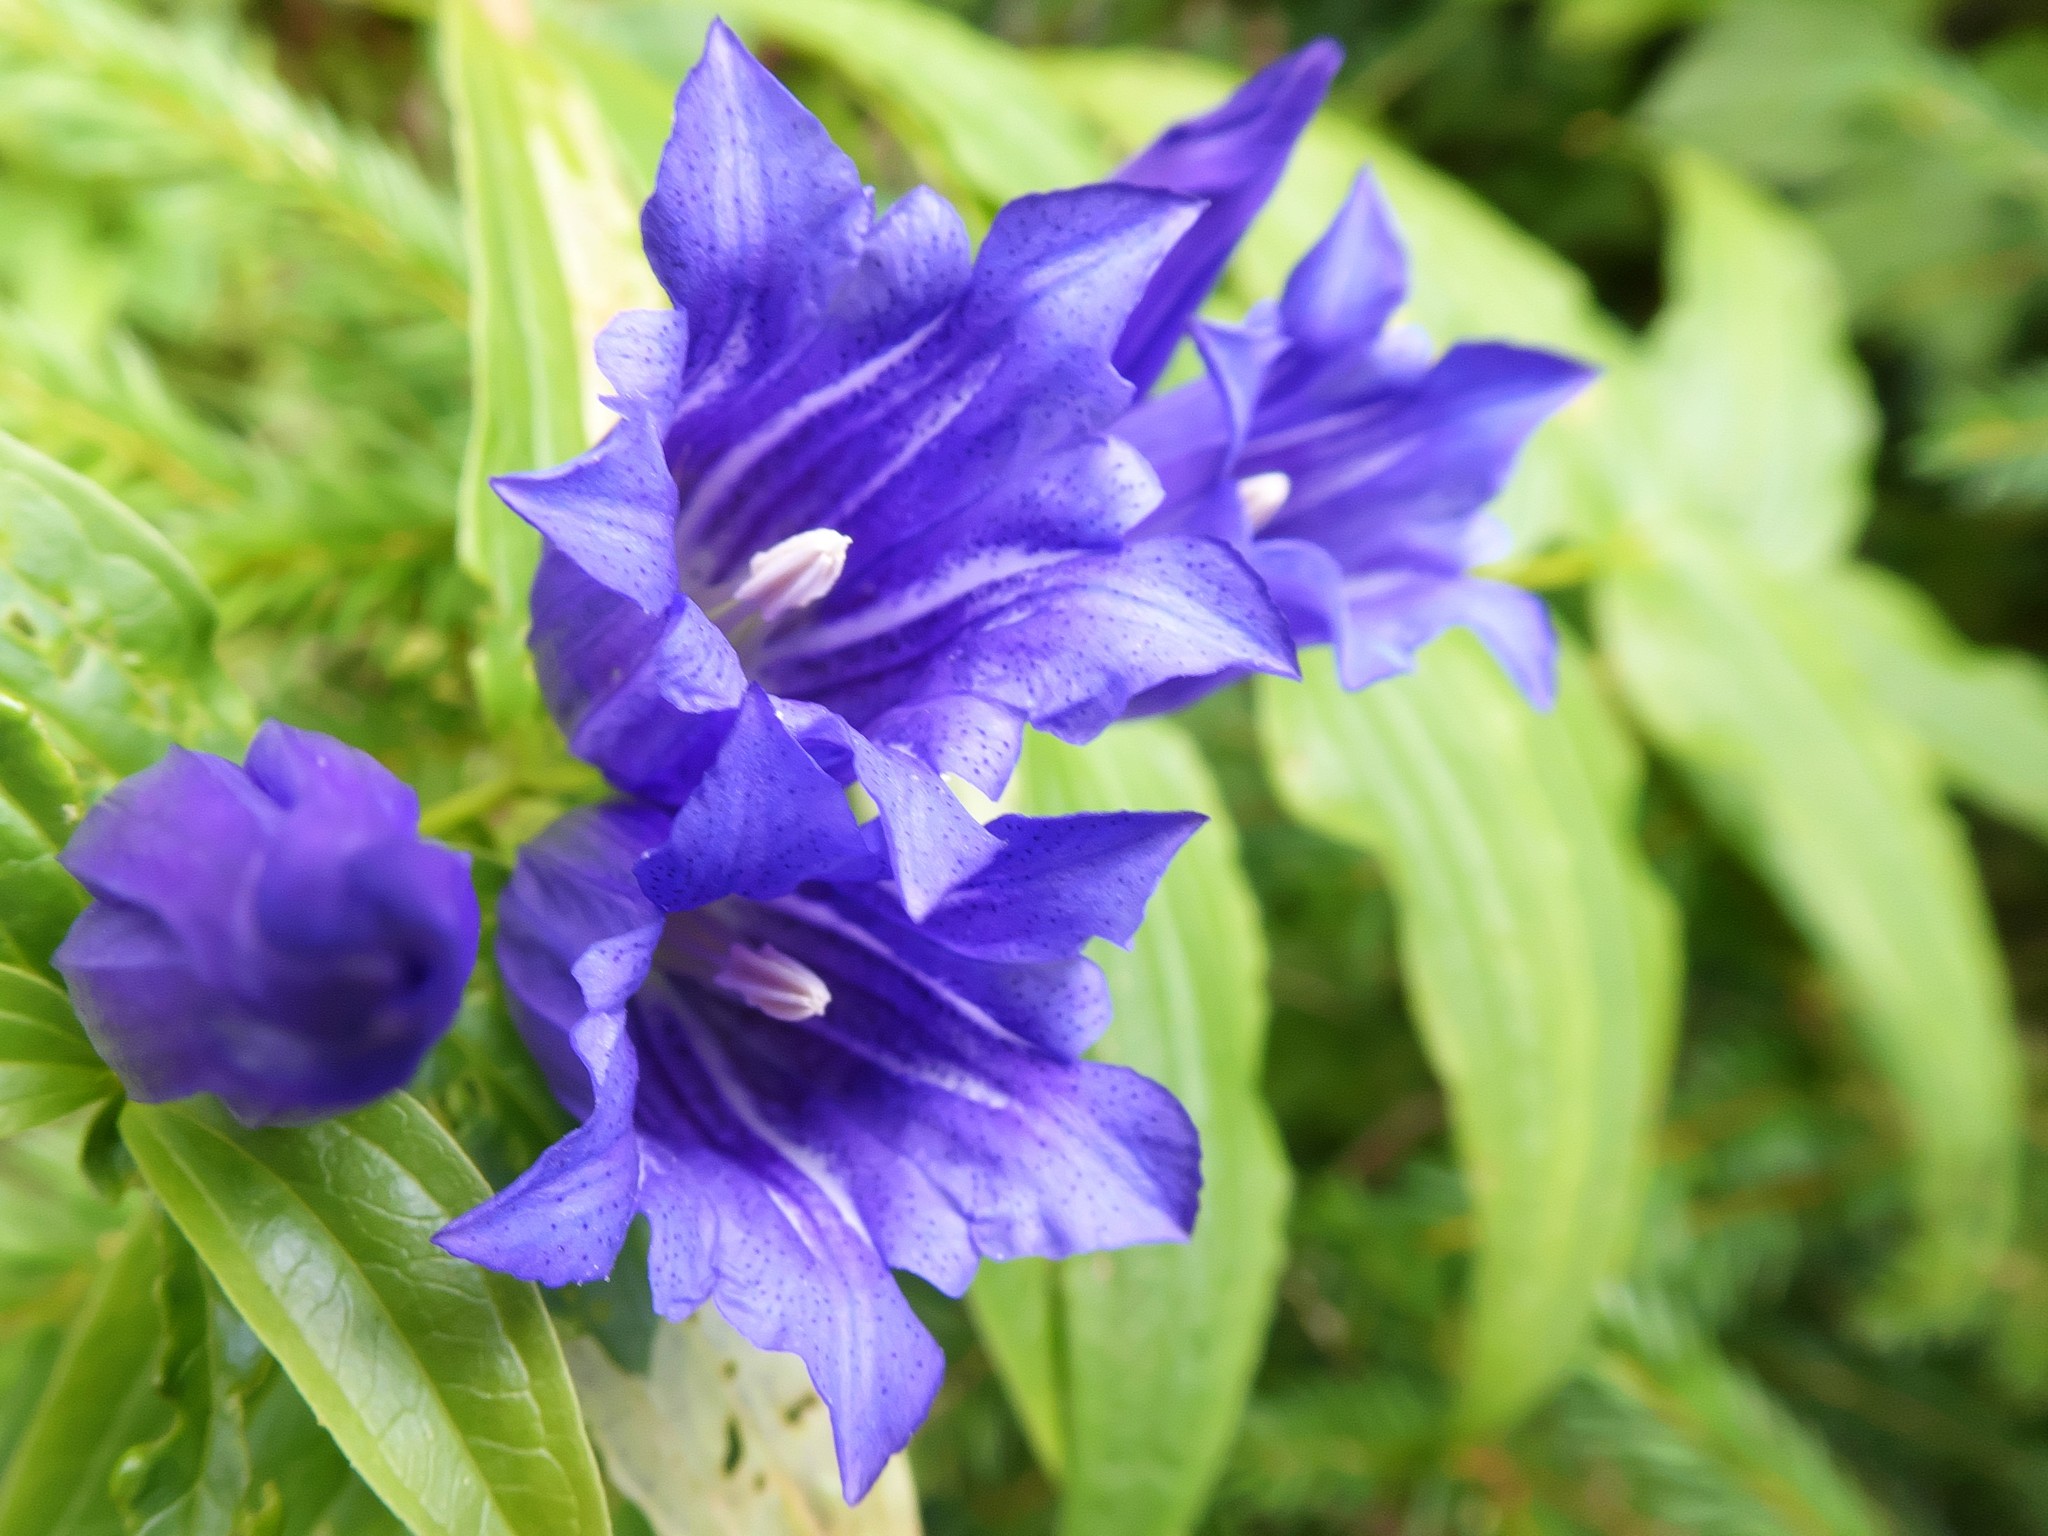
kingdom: Plantae
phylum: Tracheophyta
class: Magnoliopsida
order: Gentianales
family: Gentianaceae
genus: Gentiana
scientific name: Gentiana asclepiadea
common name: Willow gentian
